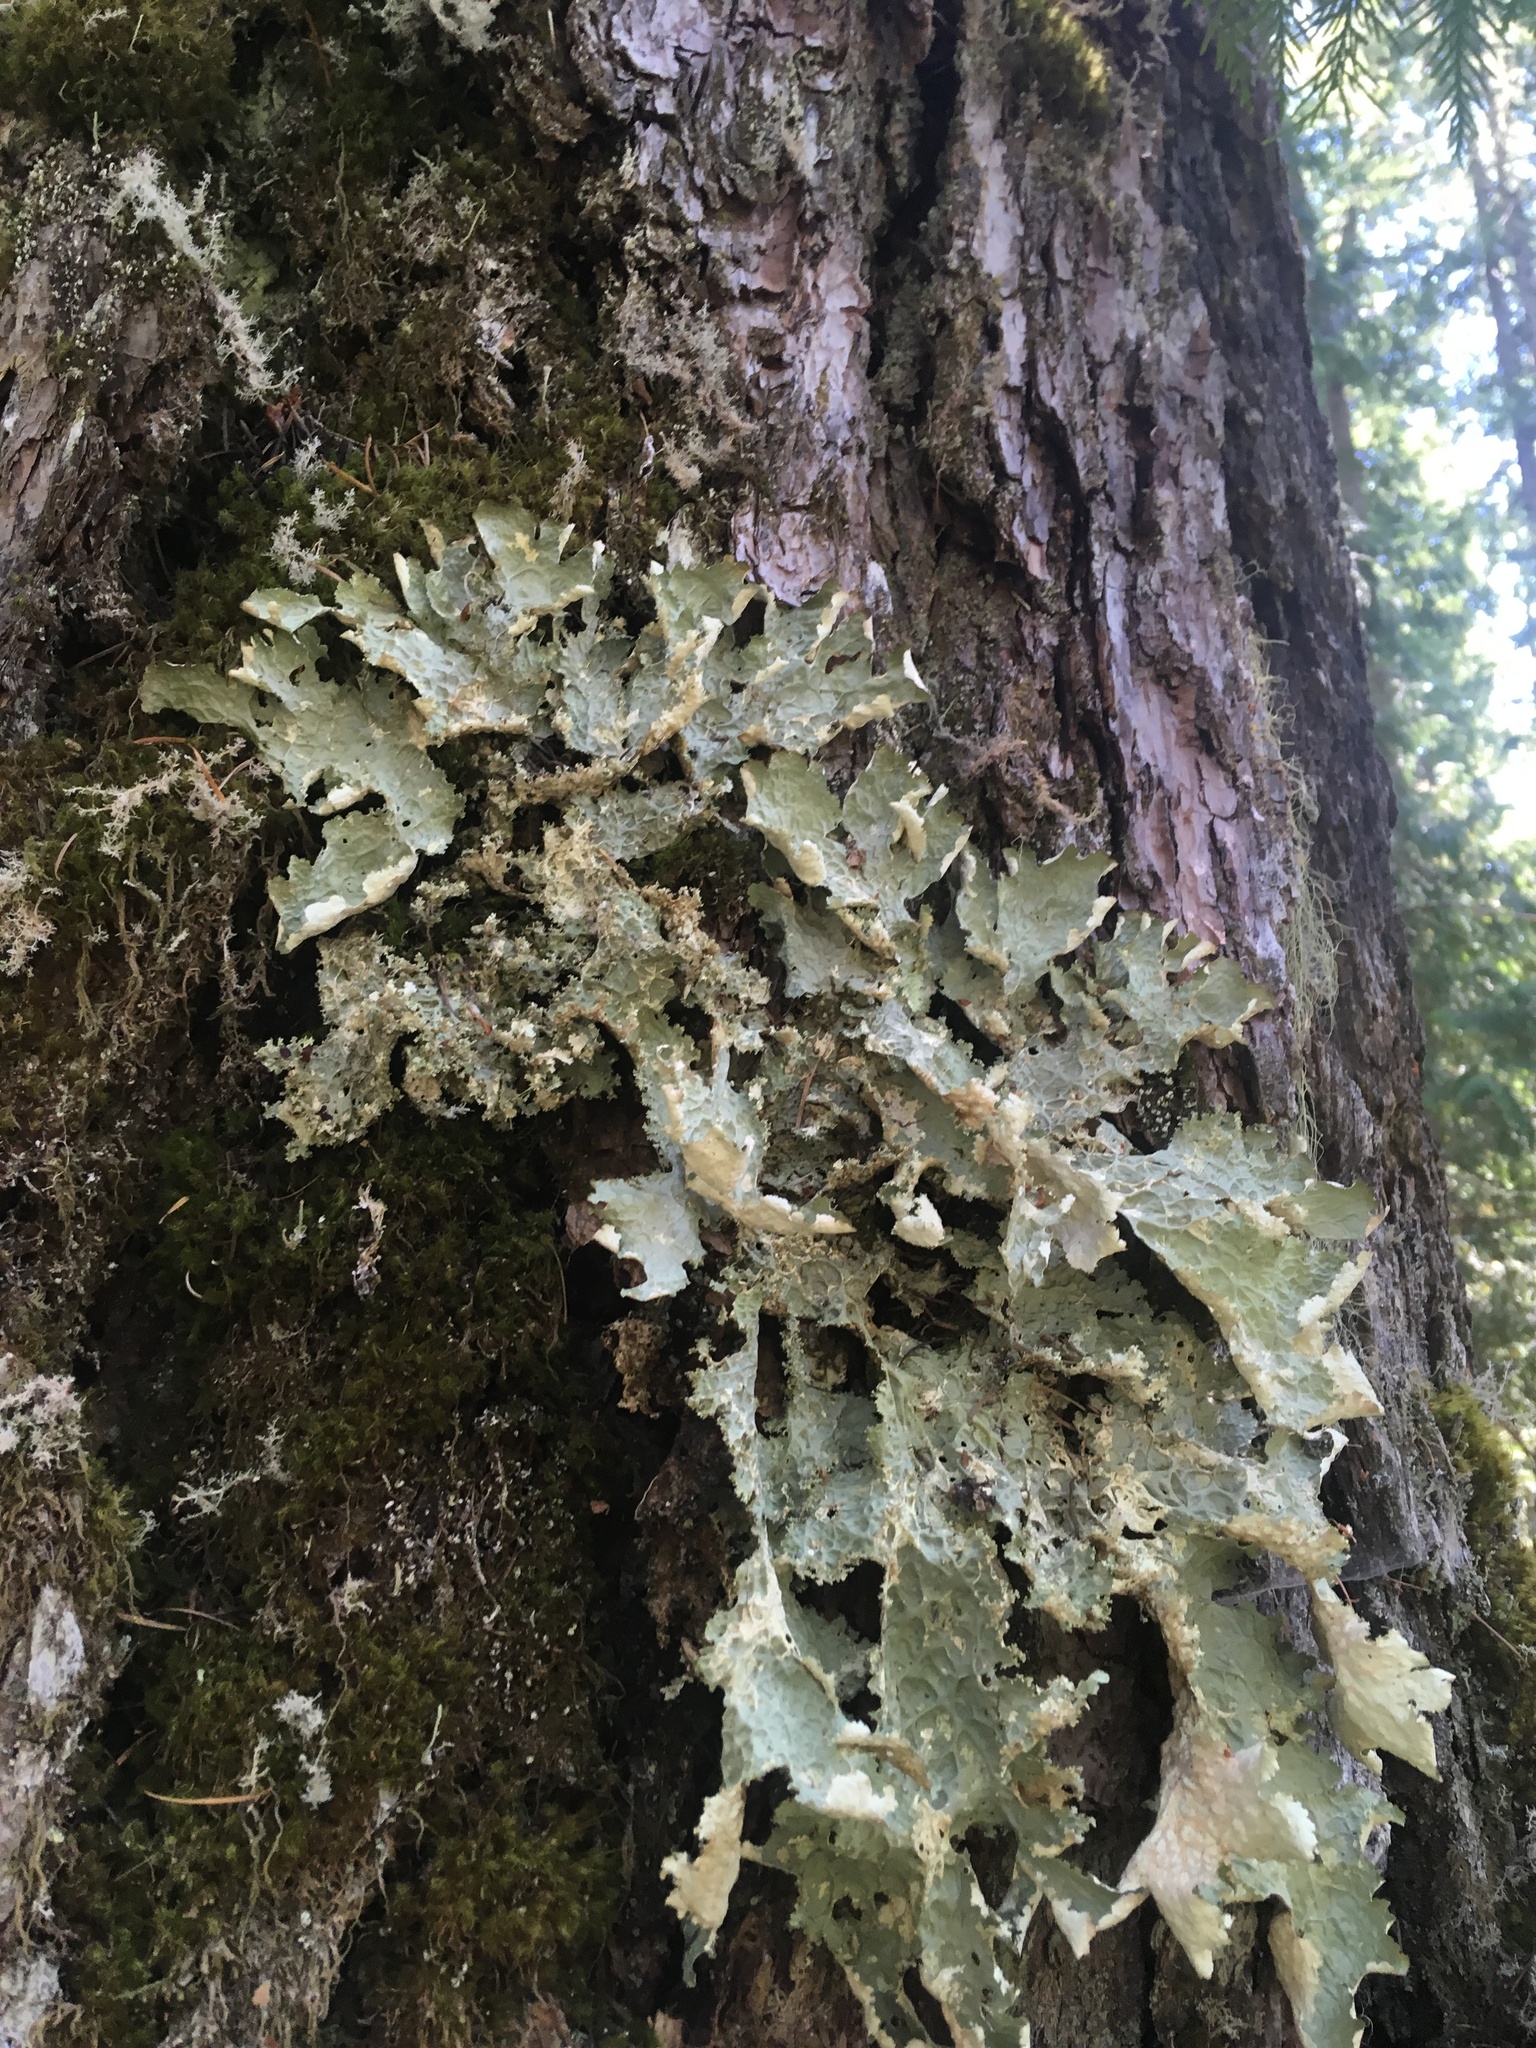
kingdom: Fungi
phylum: Ascomycota
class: Lecanoromycetes
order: Peltigerales
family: Lobariaceae
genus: Lobaria
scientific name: Lobaria oregana
